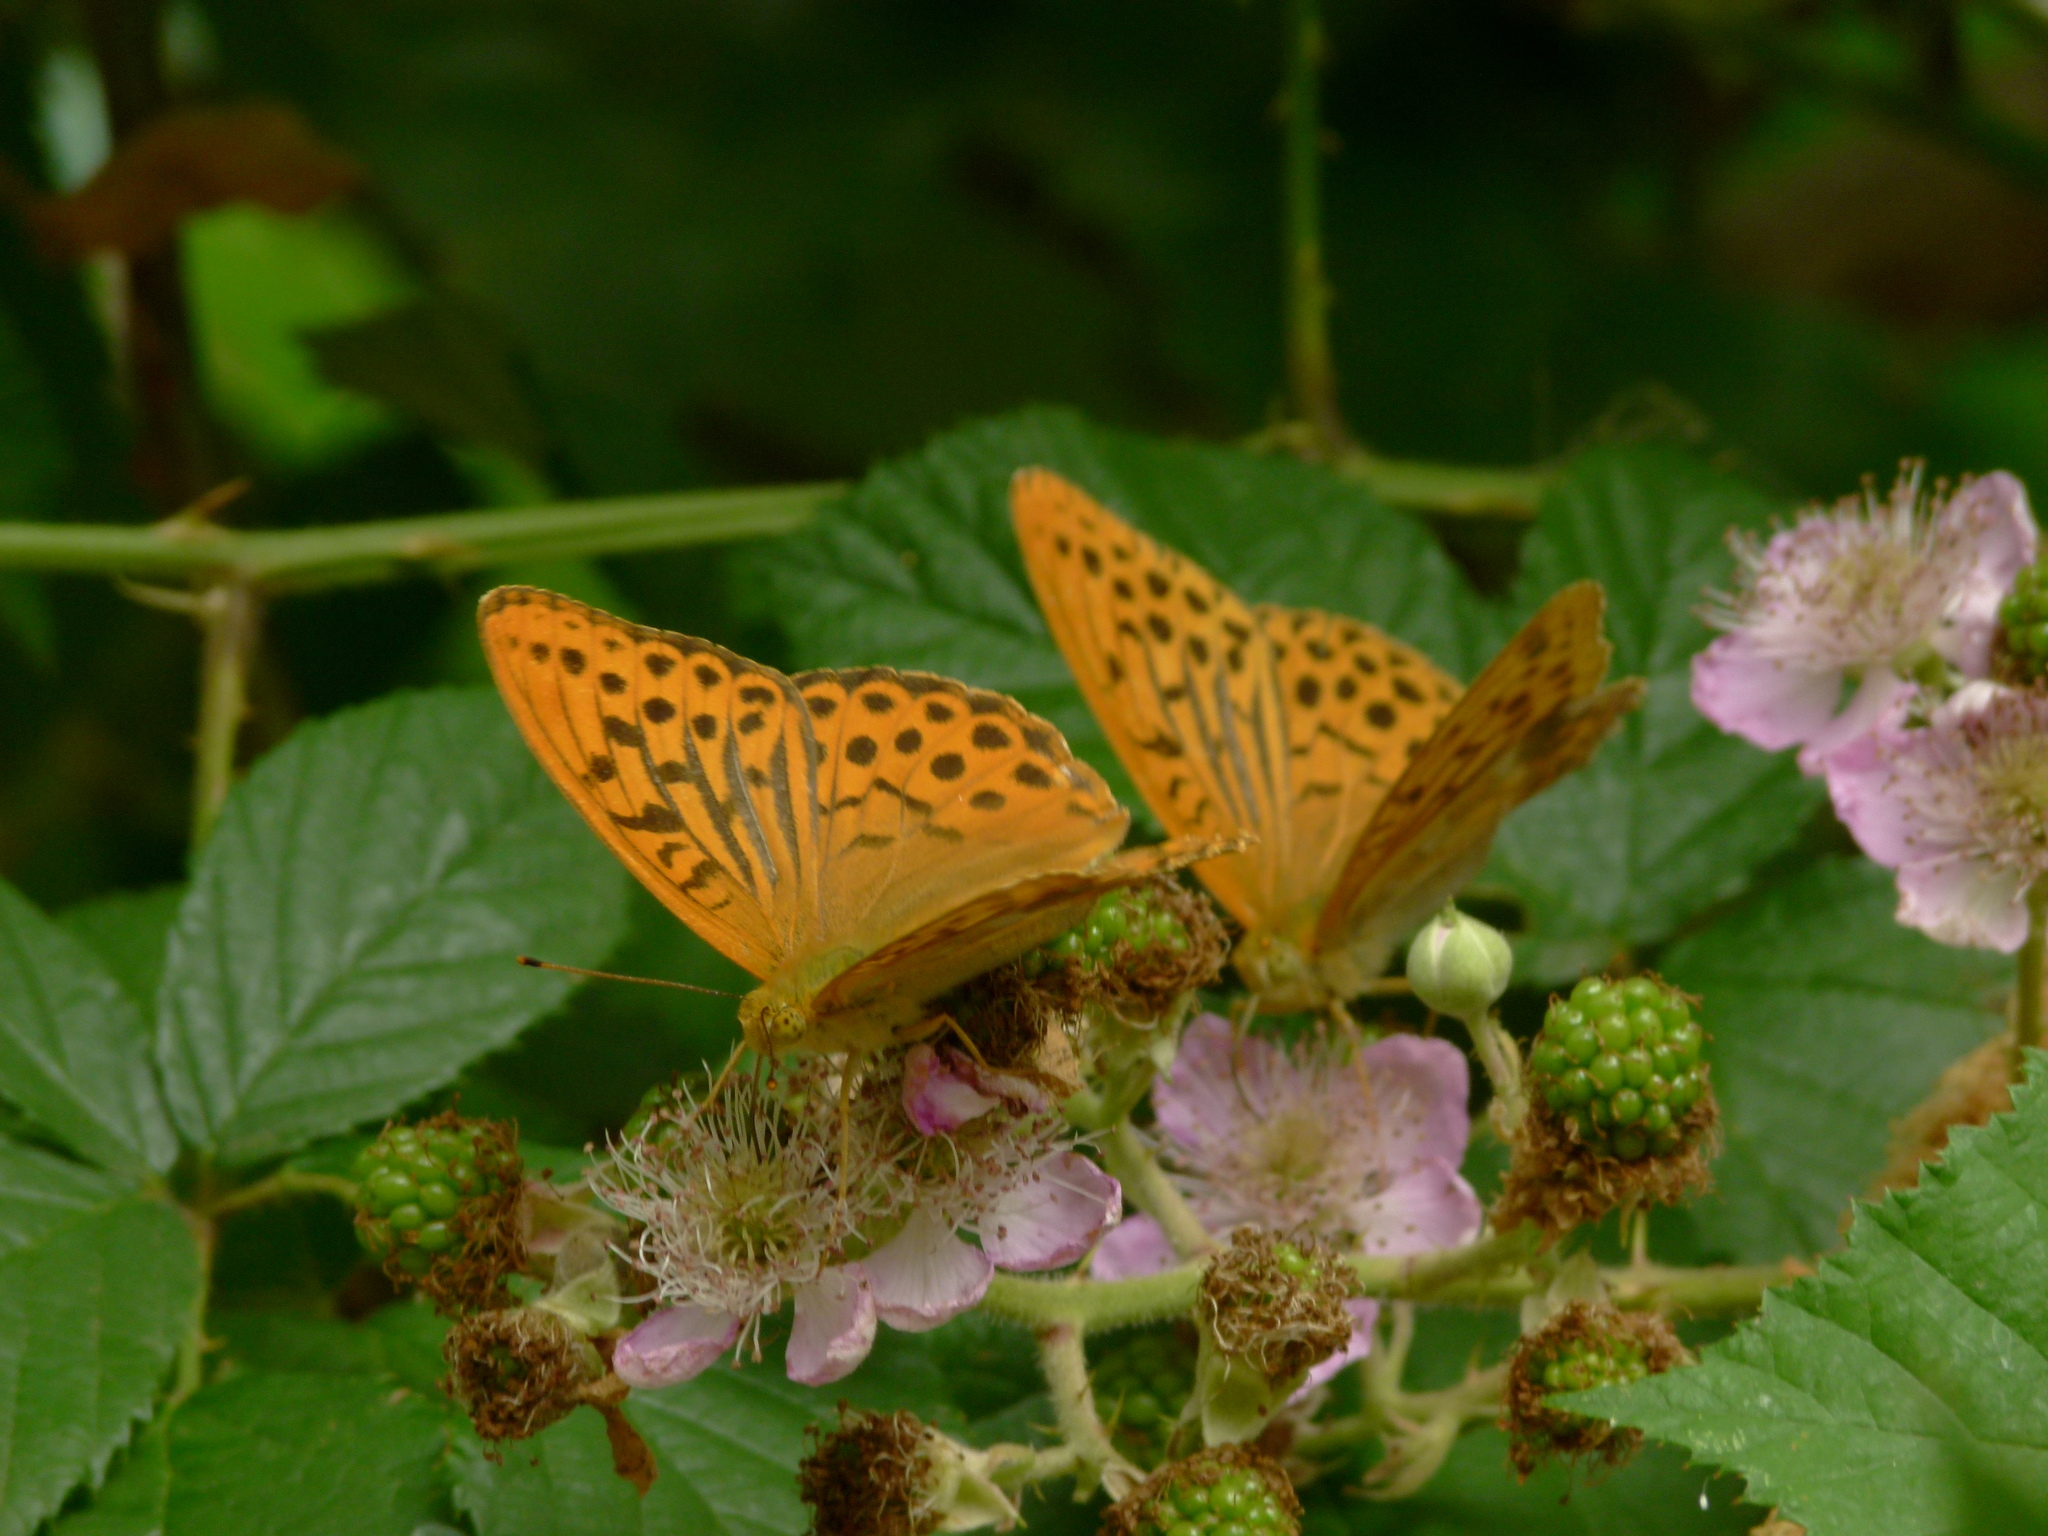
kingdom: Animalia
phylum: Arthropoda
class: Insecta
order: Lepidoptera
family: Nymphalidae
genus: Argynnis
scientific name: Argynnis paphia
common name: Silver-washed fritillary
